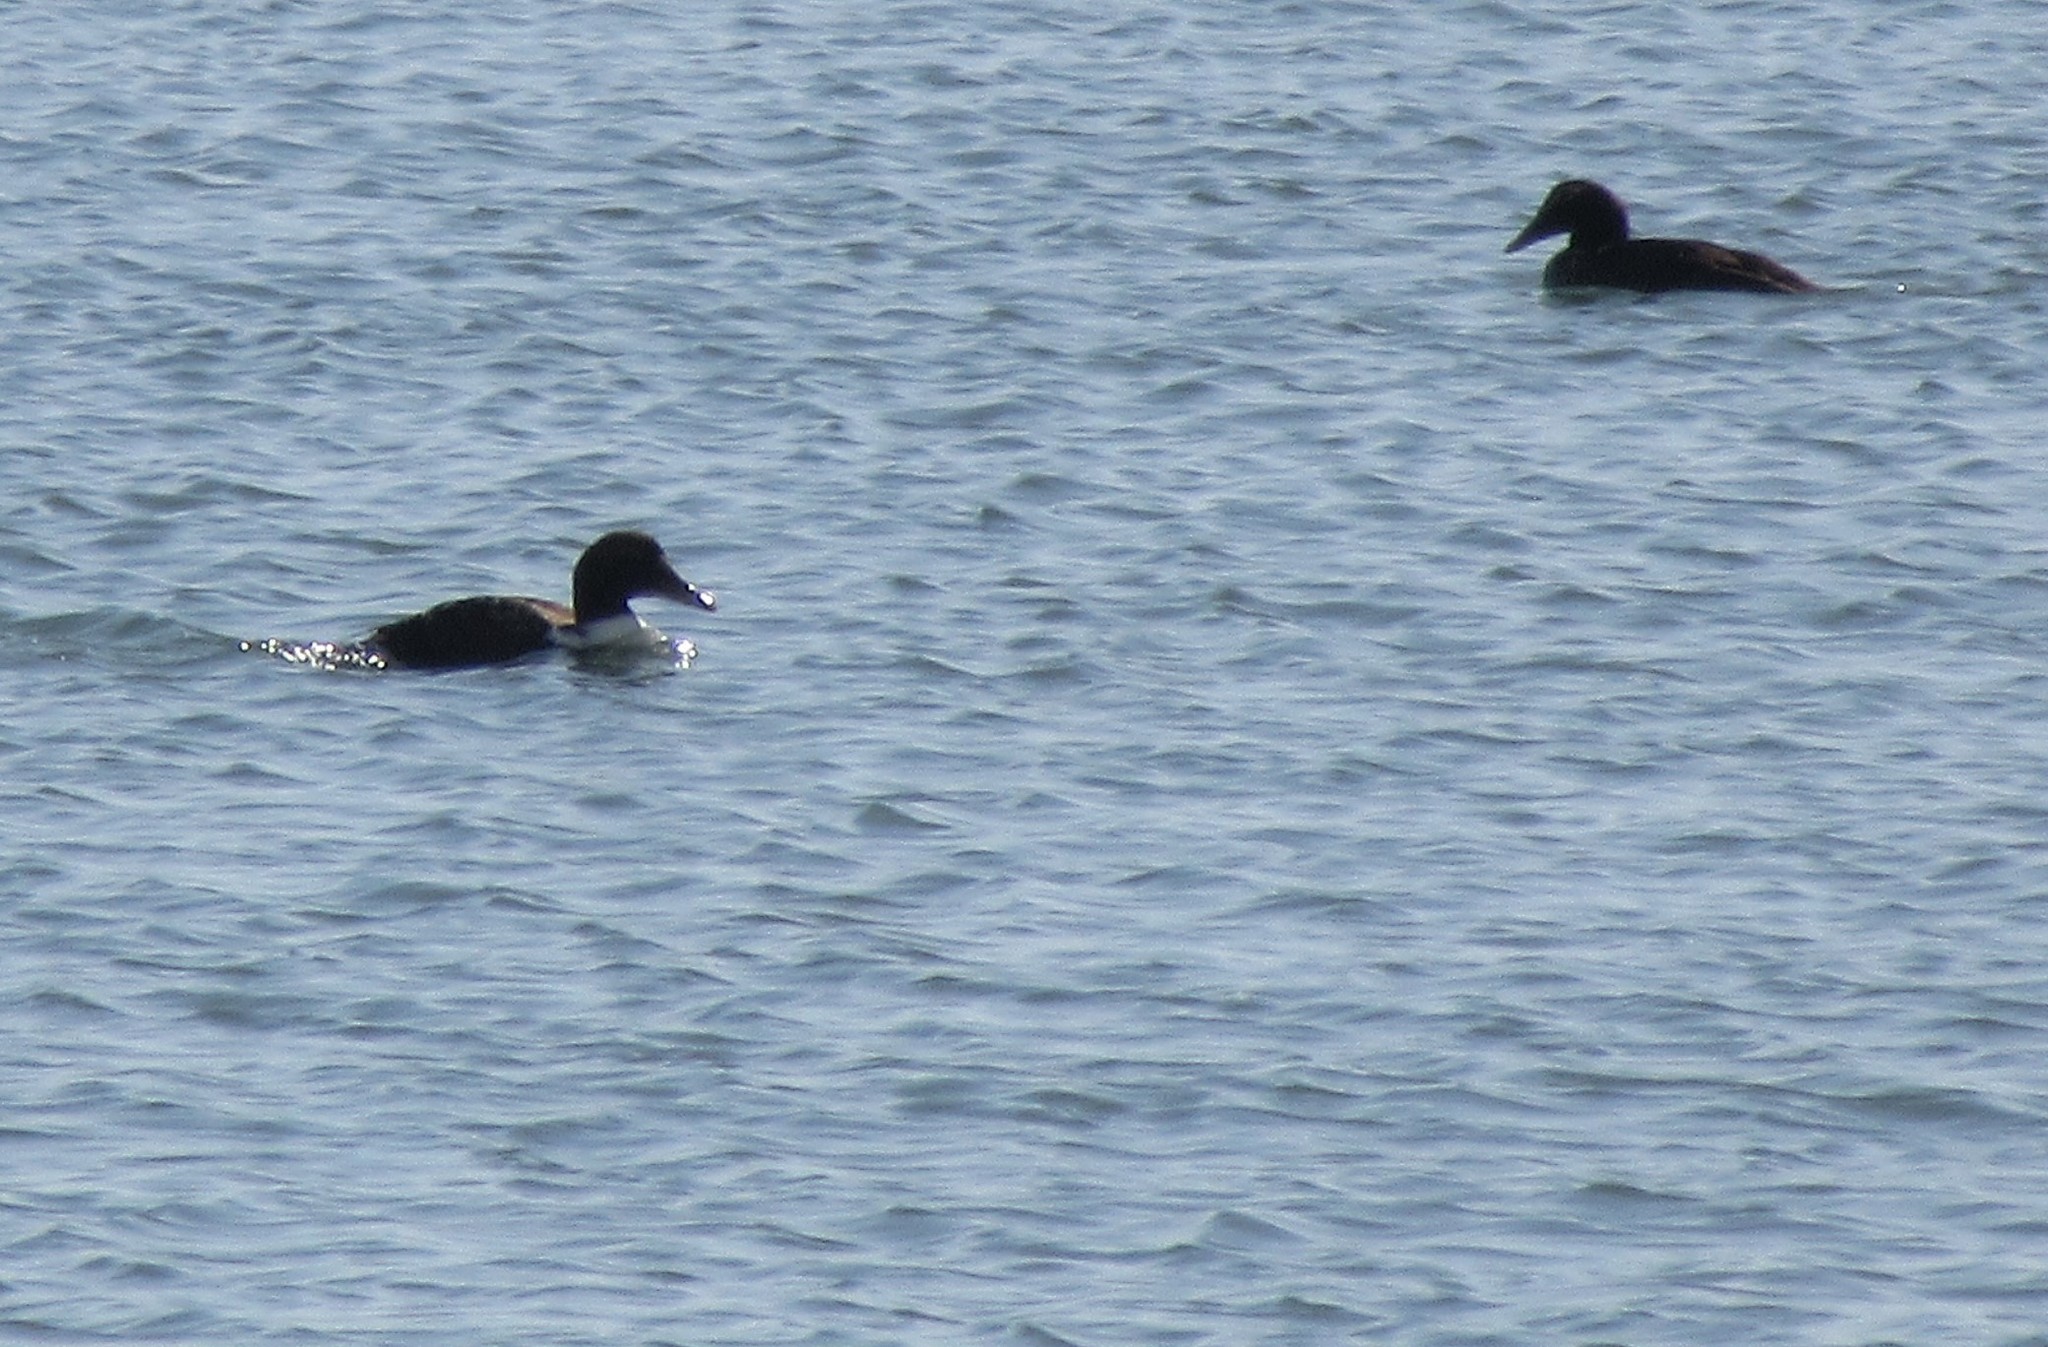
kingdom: Animalia
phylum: Chordata
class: Aves
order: Anseriformes
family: Anatidae
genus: Somateria
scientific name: Somateria mollissima
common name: Common eider
